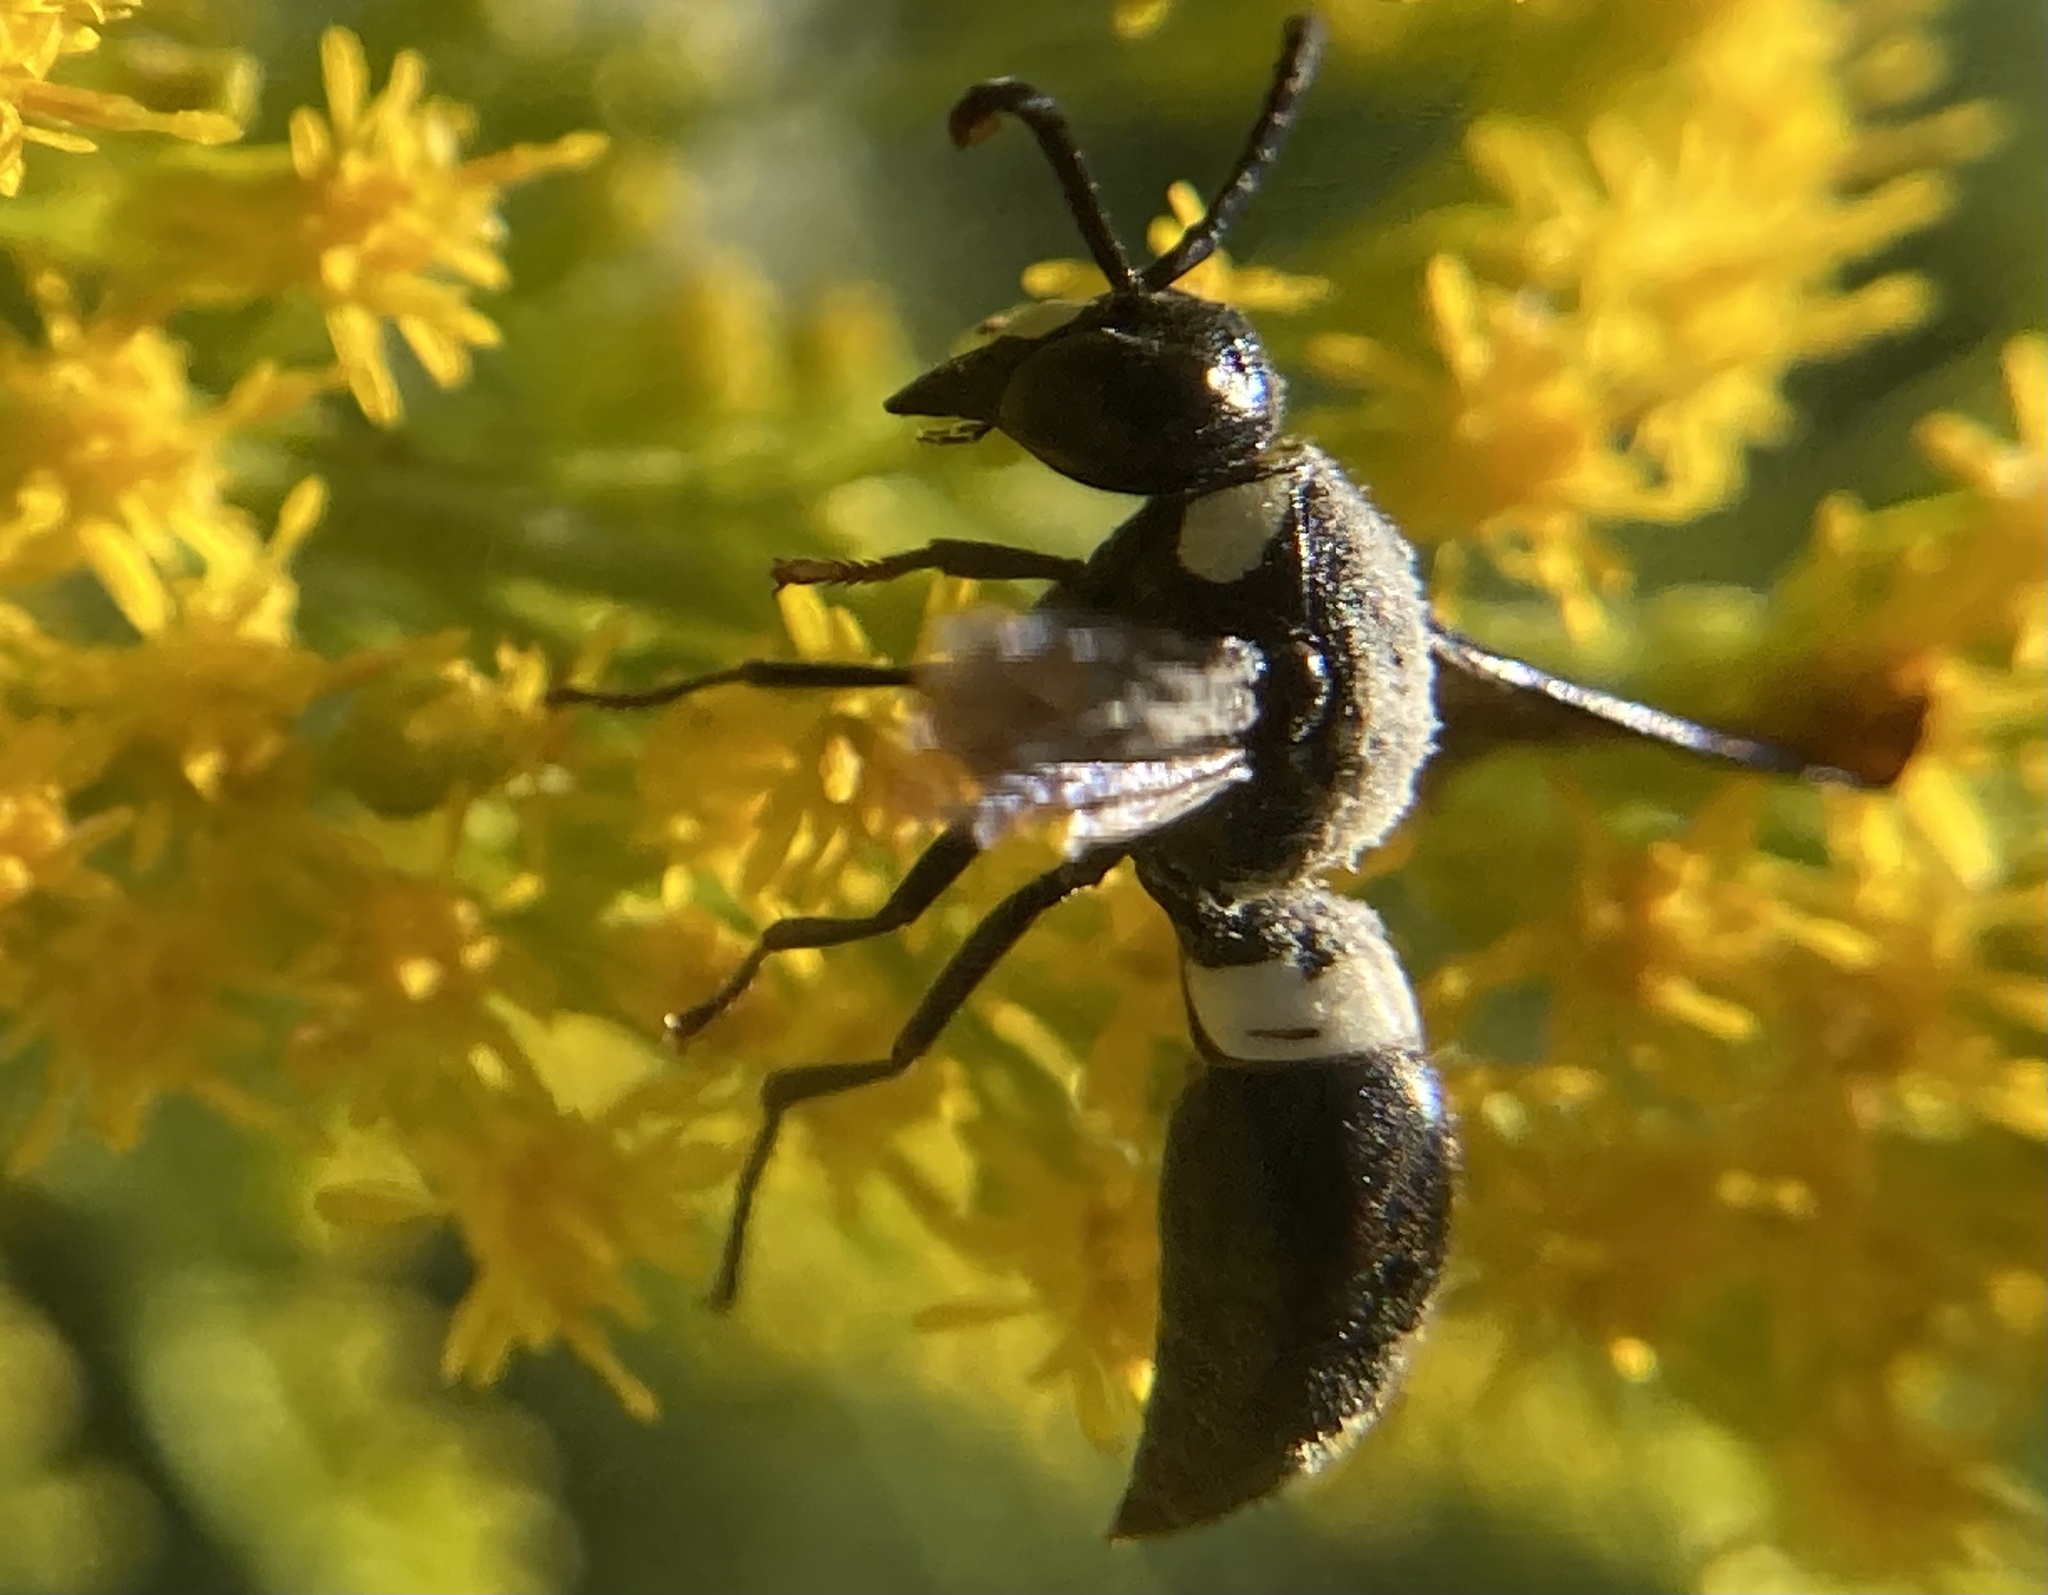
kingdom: Animalia
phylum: Arthropoda
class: Insecta
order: Hymenoptera
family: Eumenidae
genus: Monobia
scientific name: Monobia quadridens
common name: Four-toothed mason wasp
